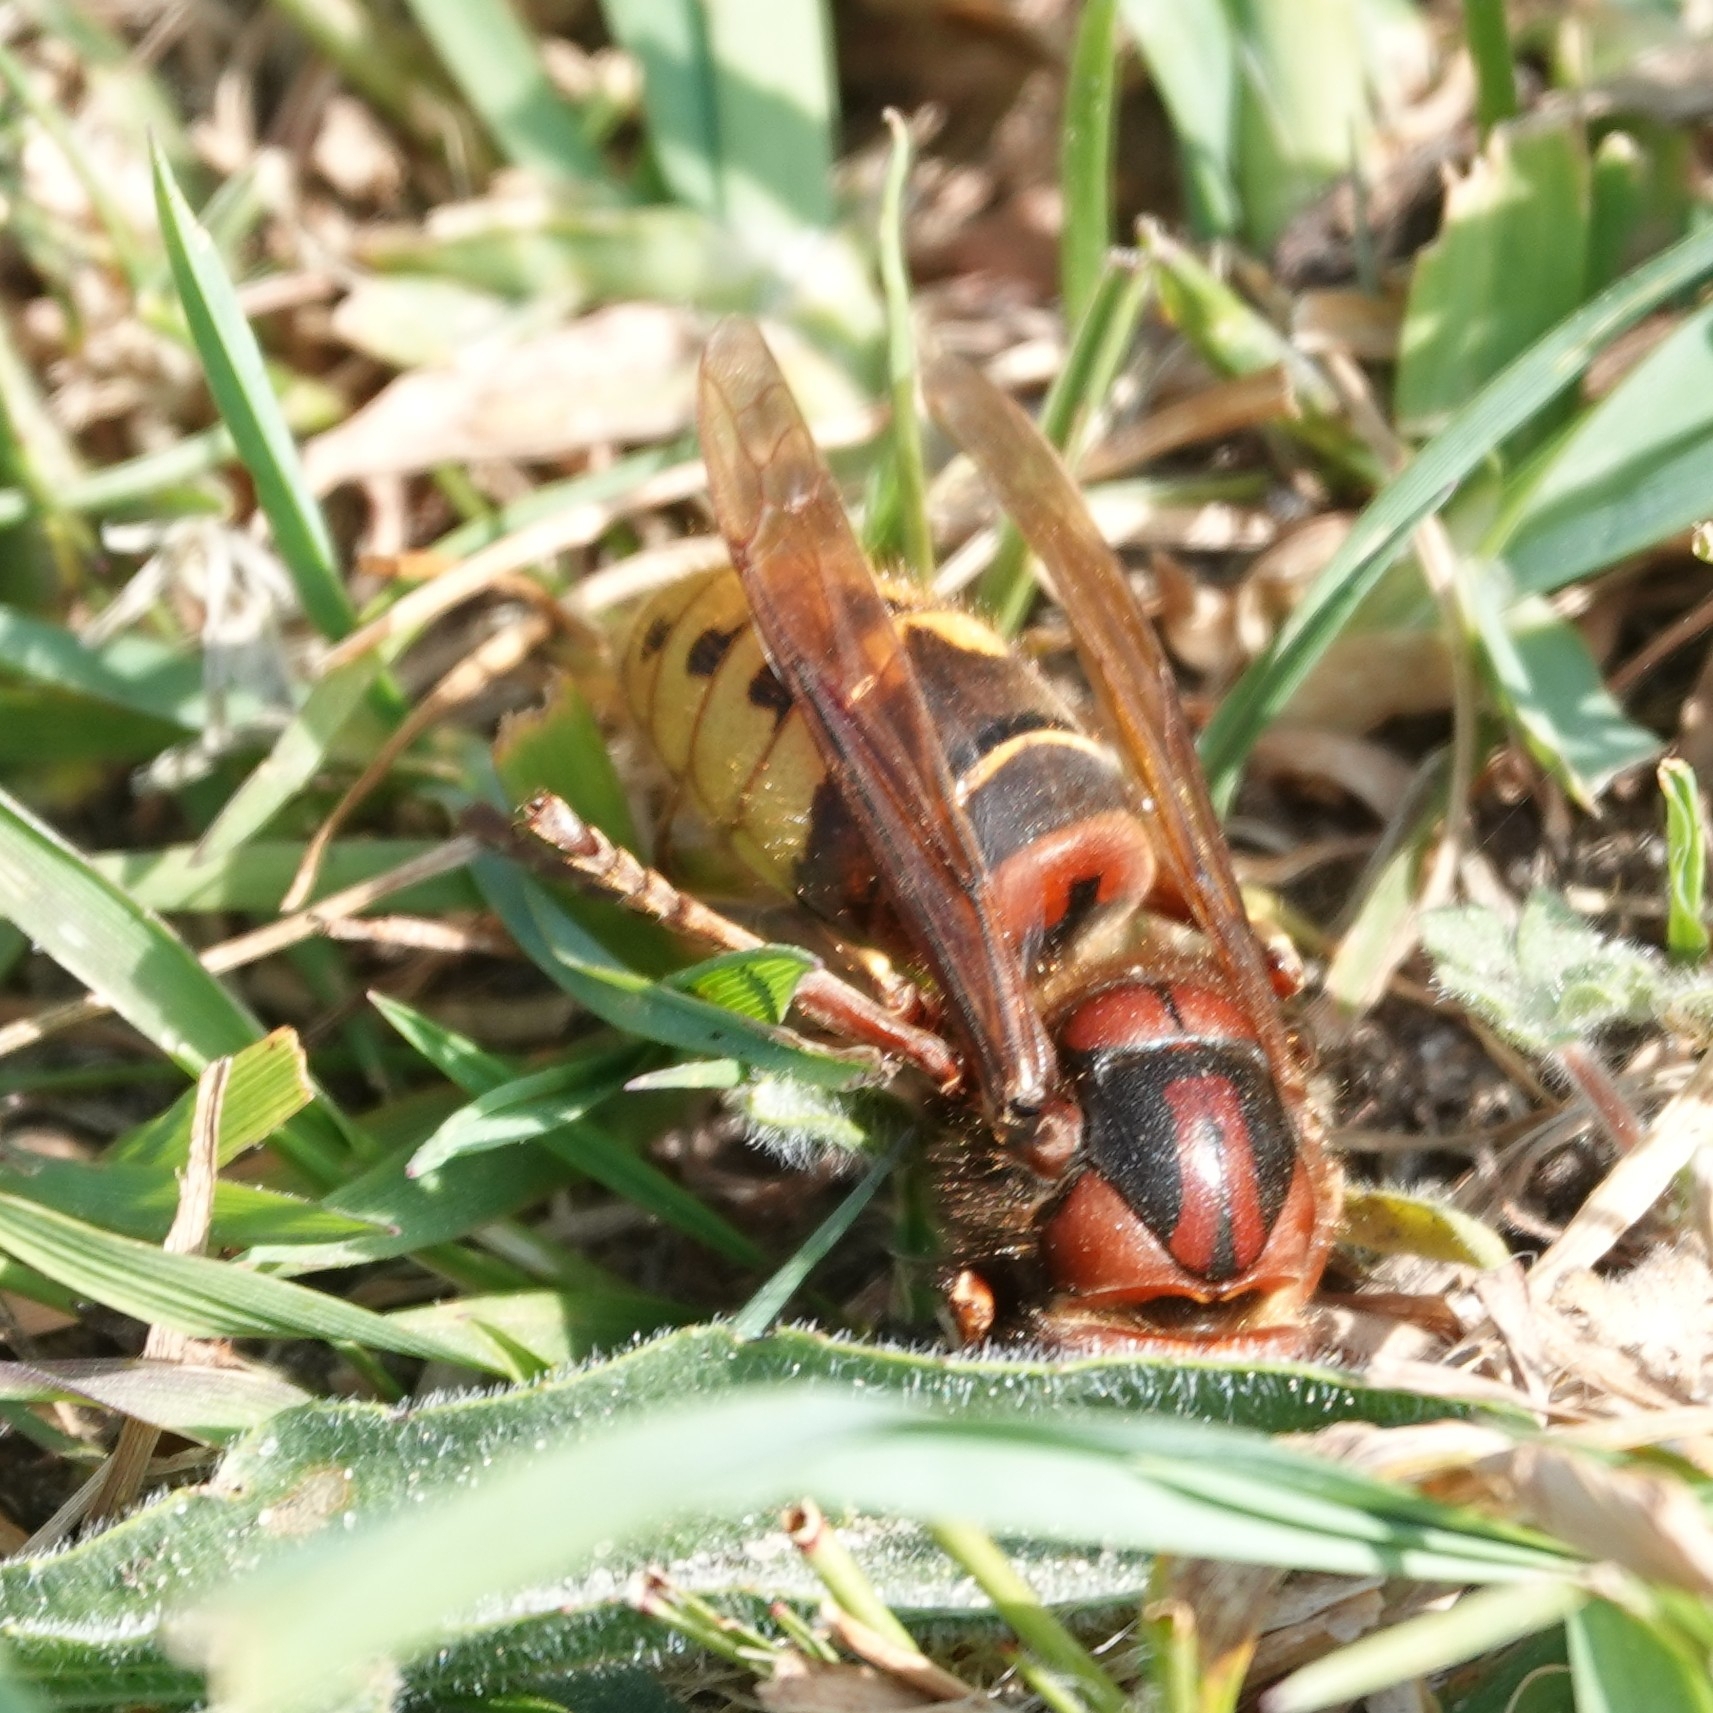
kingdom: Animalia
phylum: Arthropoda
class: Insecta
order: Hymenoptera
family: Vespidae
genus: Vespa
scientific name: Vespa crabro
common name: Hornet
